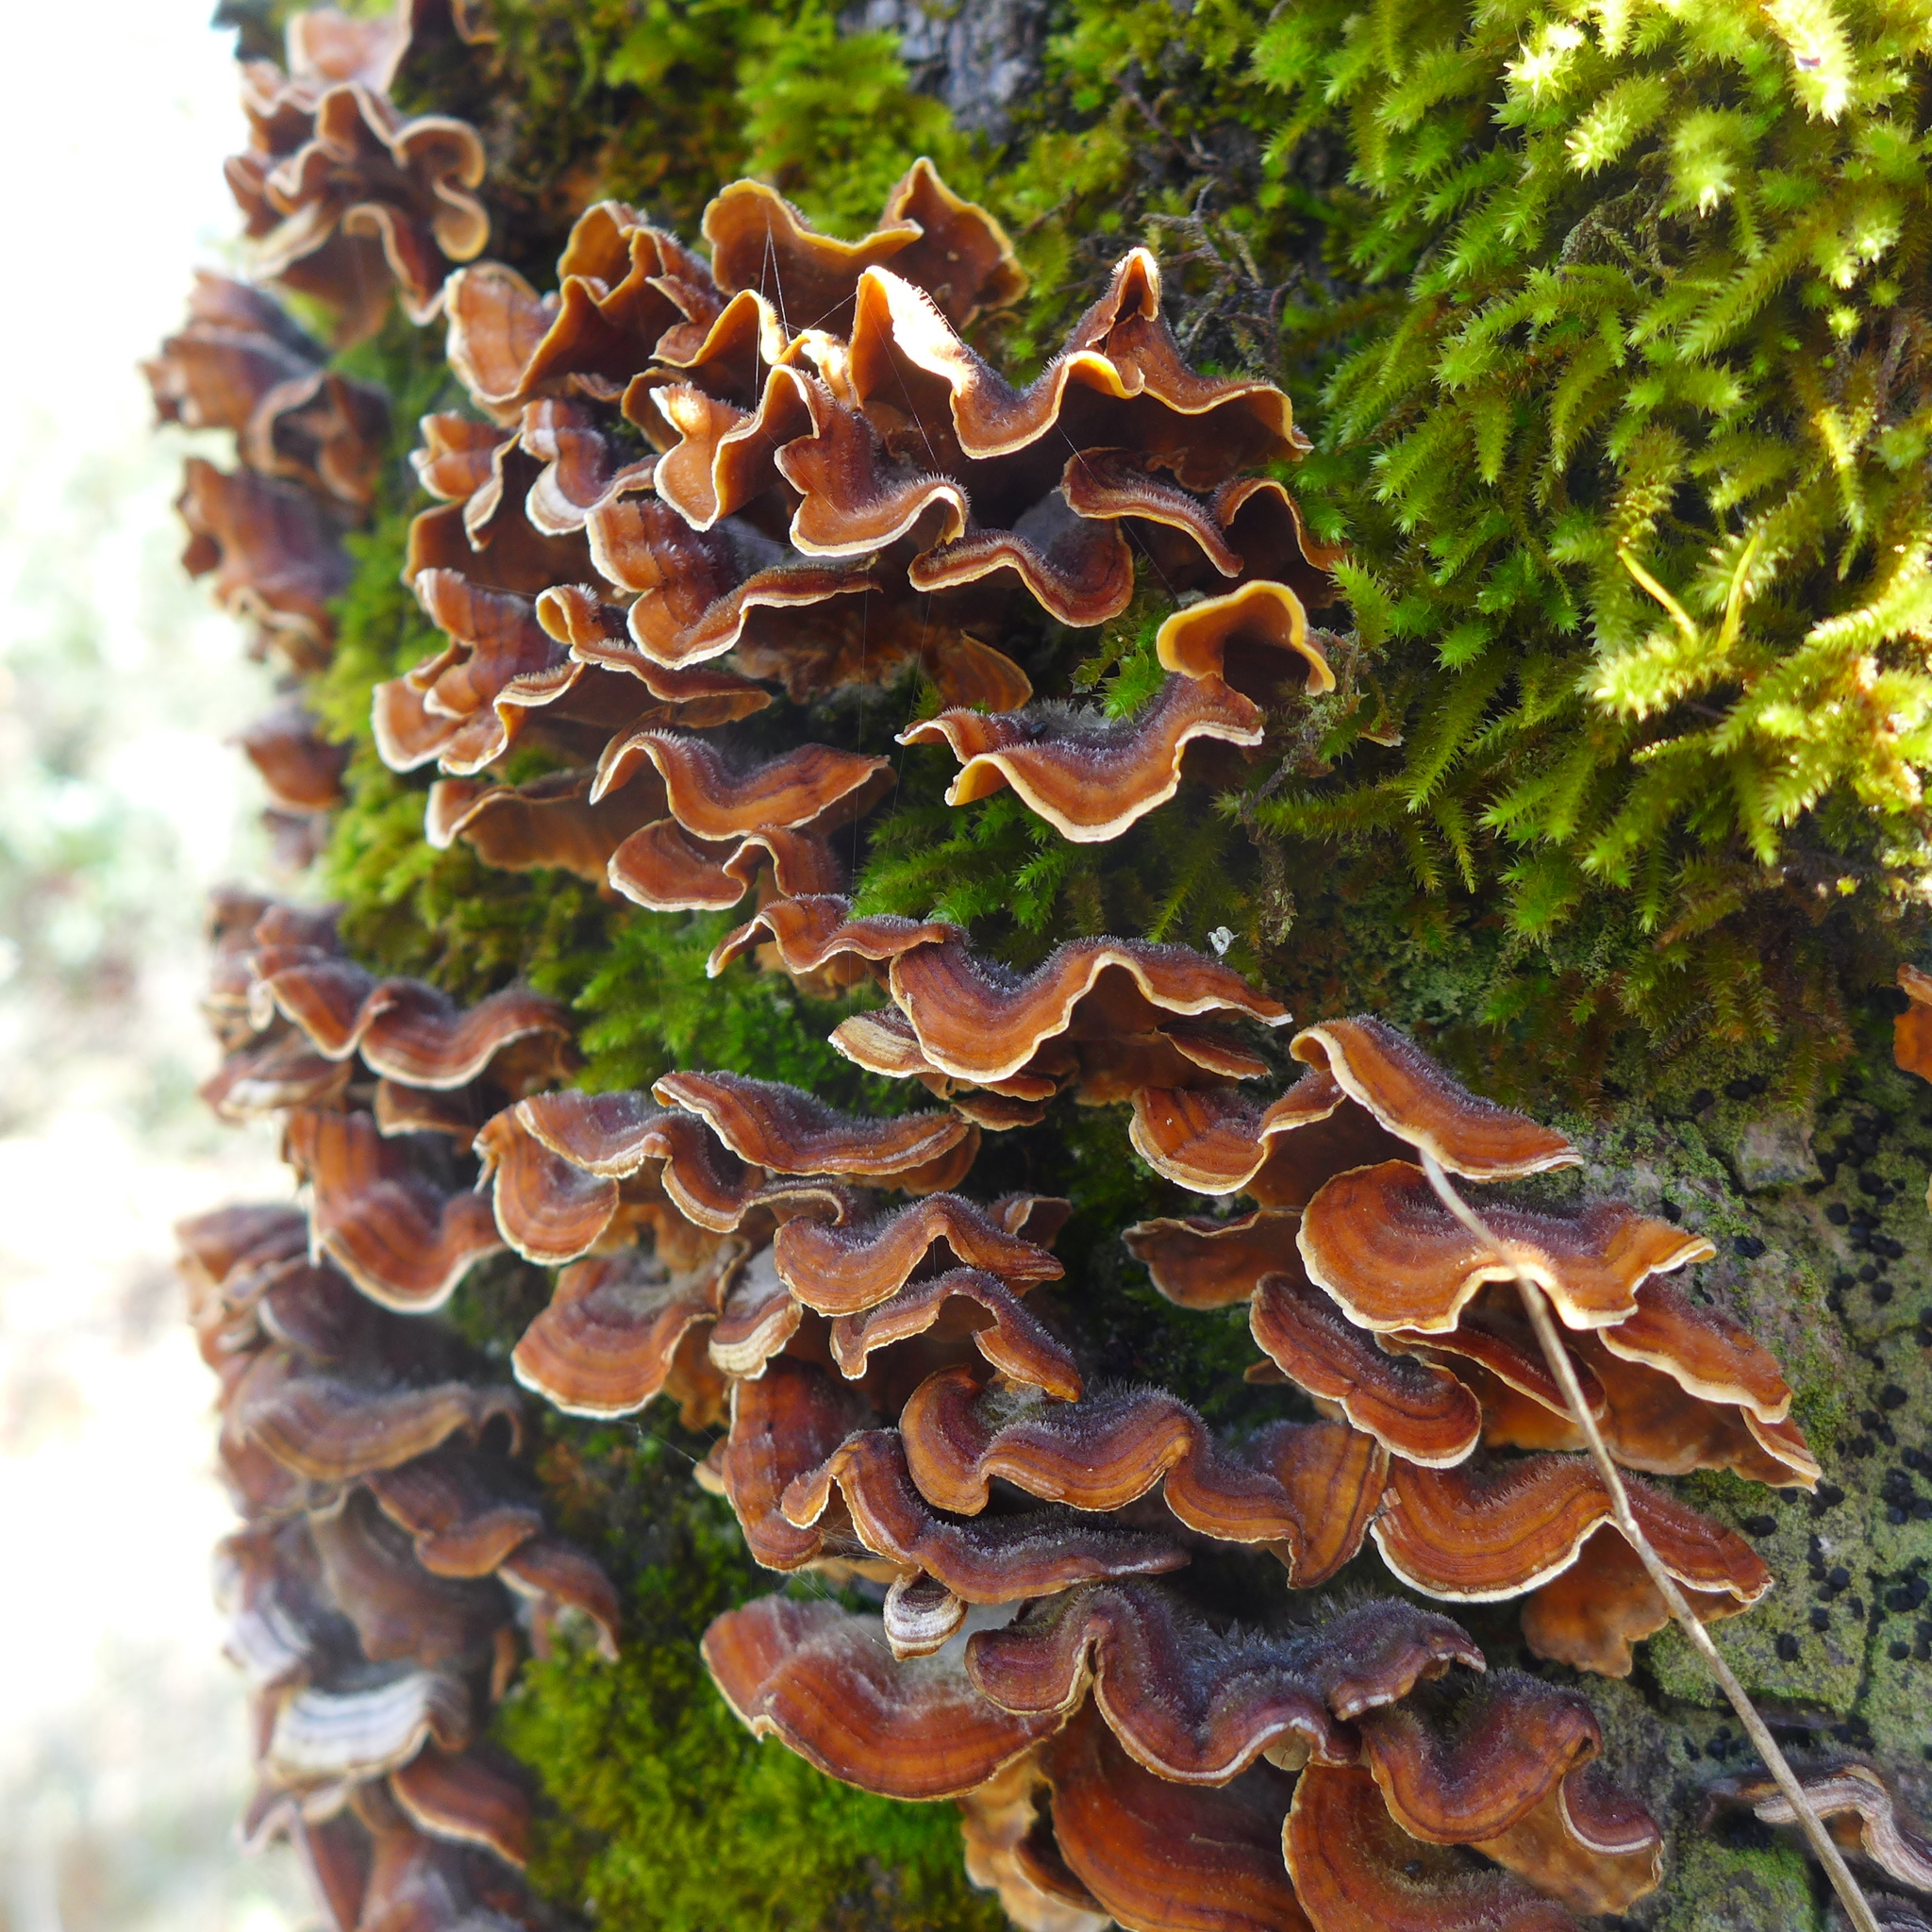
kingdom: Fungi
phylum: Basidiomycota
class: Agaricomycetes
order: Russulales
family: Stereaceae
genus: Stereum
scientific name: Stereum hirsutum
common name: Hairy curtain crust
